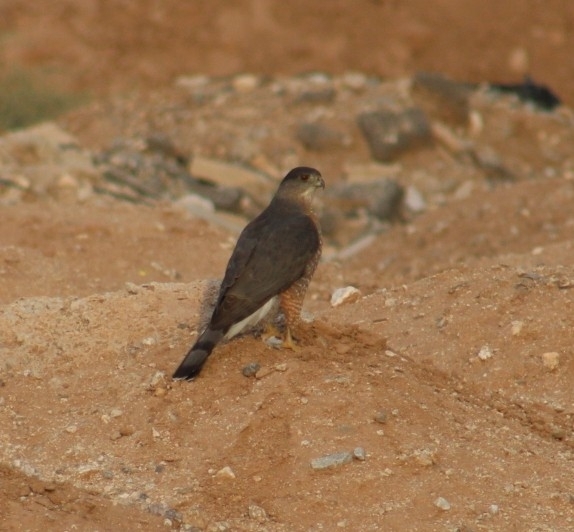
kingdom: Animalia
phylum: Chordata
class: Aves
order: Accipitriformes
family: Accipitridae
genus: Accipiter
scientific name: Accipiter cooperii
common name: Cooper's hawk
